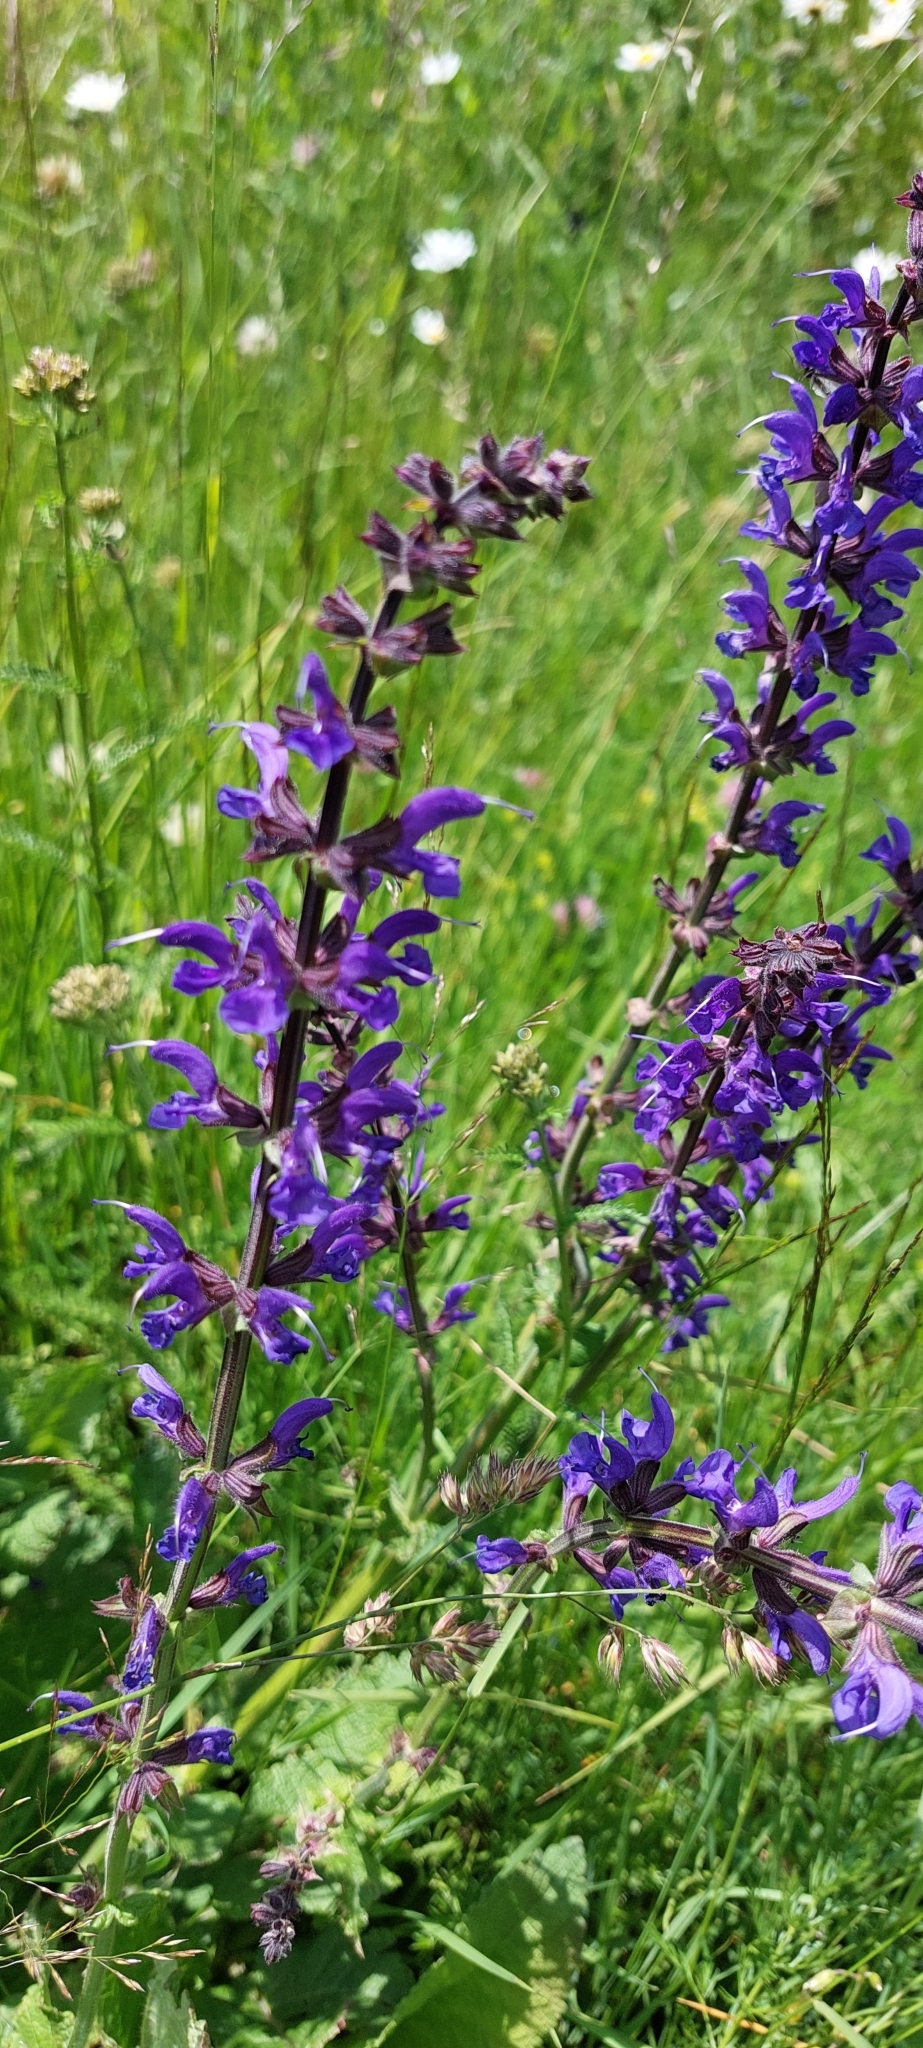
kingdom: Plantae
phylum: Tracheophyta
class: Magnoliopsida
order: Lamiales
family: Lamiaceae
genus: Salvia
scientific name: Salvia pratensis
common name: Meadow sage
